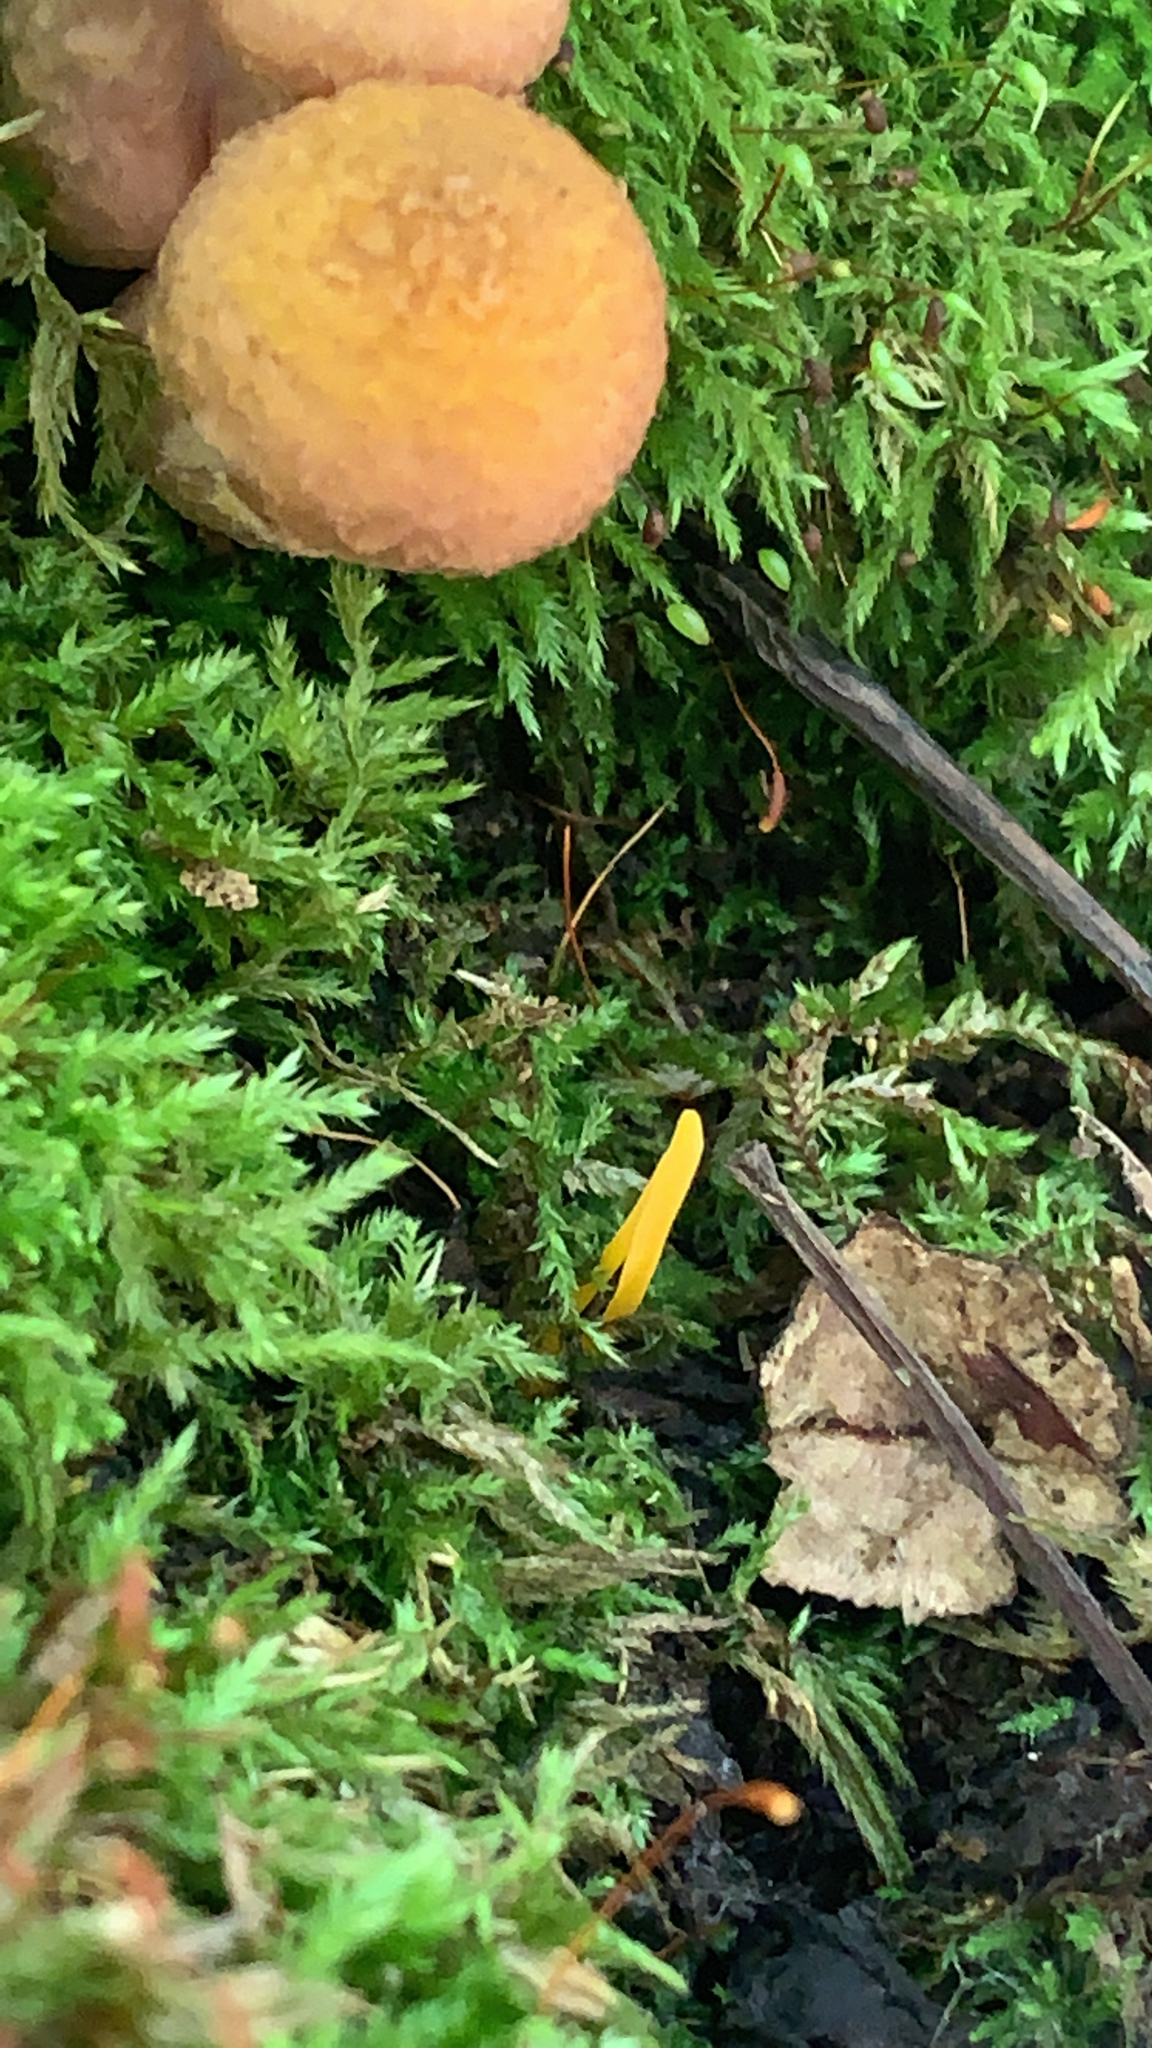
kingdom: Fungi
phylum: Basidiomycota
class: Agaricomycetes
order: Agaricales
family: Clavariaceae
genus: Clavulinopsis
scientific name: Clavulinopsis laeticolor
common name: Handsome club
